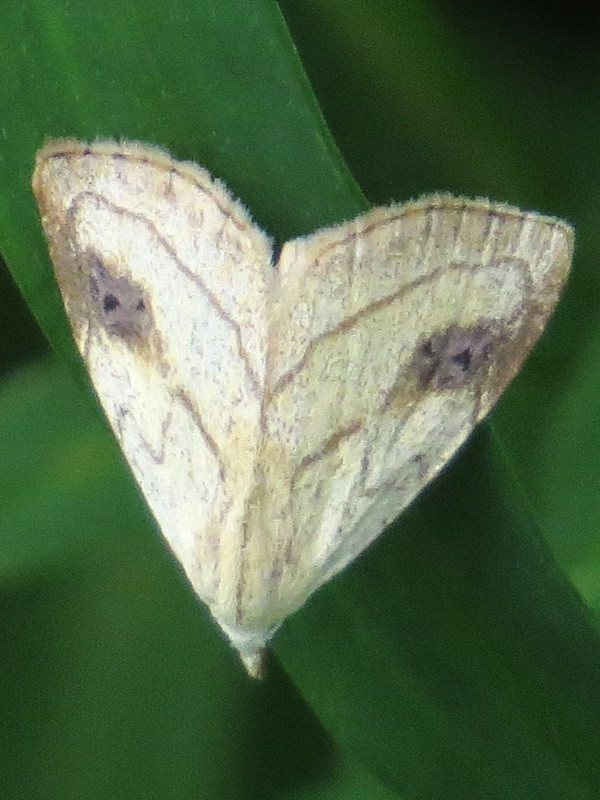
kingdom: Animalia
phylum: Arthropoda
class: Insecta
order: Lepidoptera
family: Erebidae
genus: Rivula
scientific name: Rivula propinqualis
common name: Spotted grass moth
